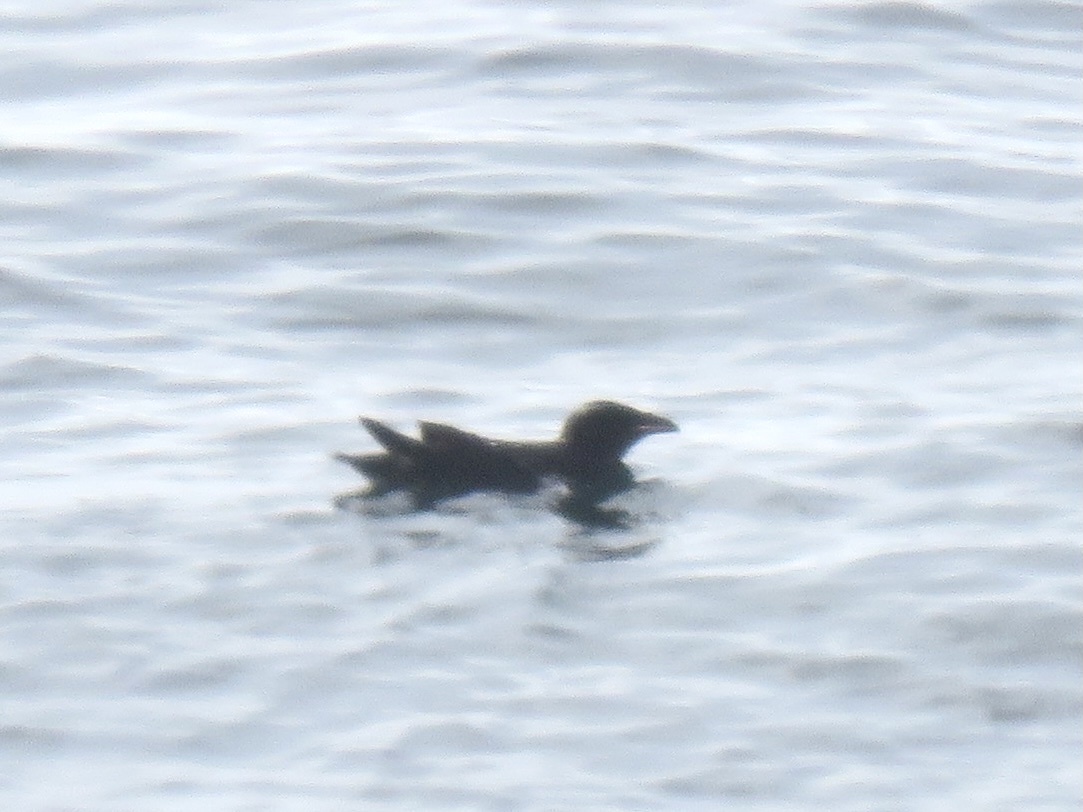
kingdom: Animalia
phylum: Chordata
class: Aves
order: Charadriiformes
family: Alcidae
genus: Cerorhinca
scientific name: Cerorhinca monocerata
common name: Rhinoceros auklet
